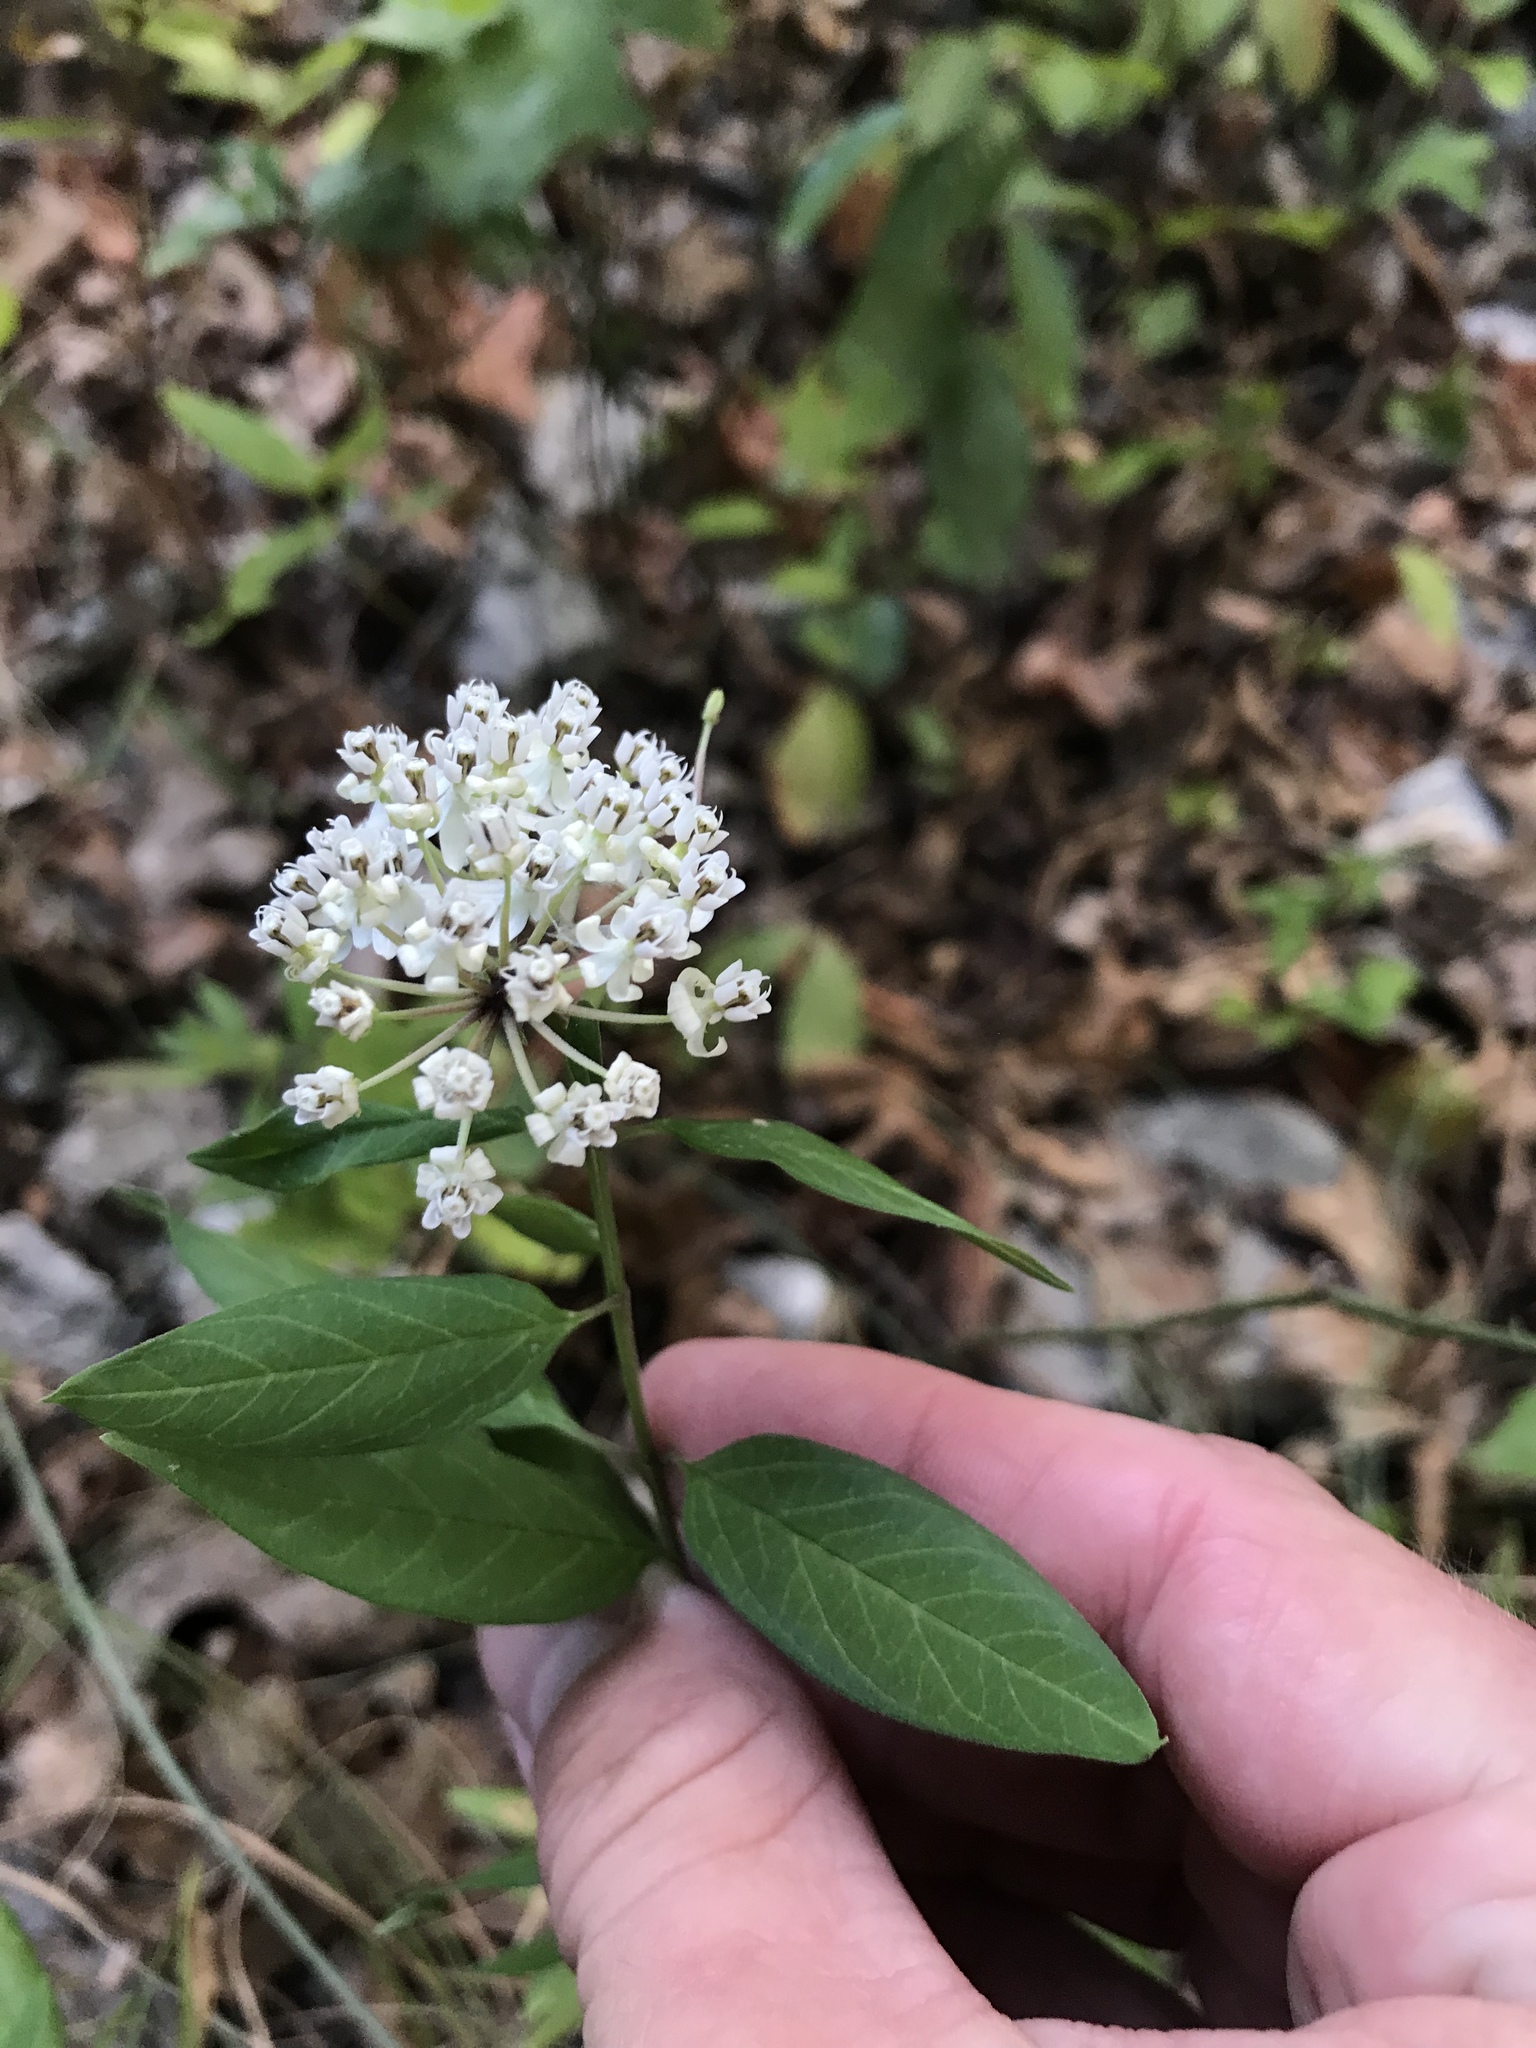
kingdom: Plantae
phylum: Tracheophyta
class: Magnoliopsida
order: Gentianales
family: Apocynaceae
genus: Asclepias
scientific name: Asclepias texana
